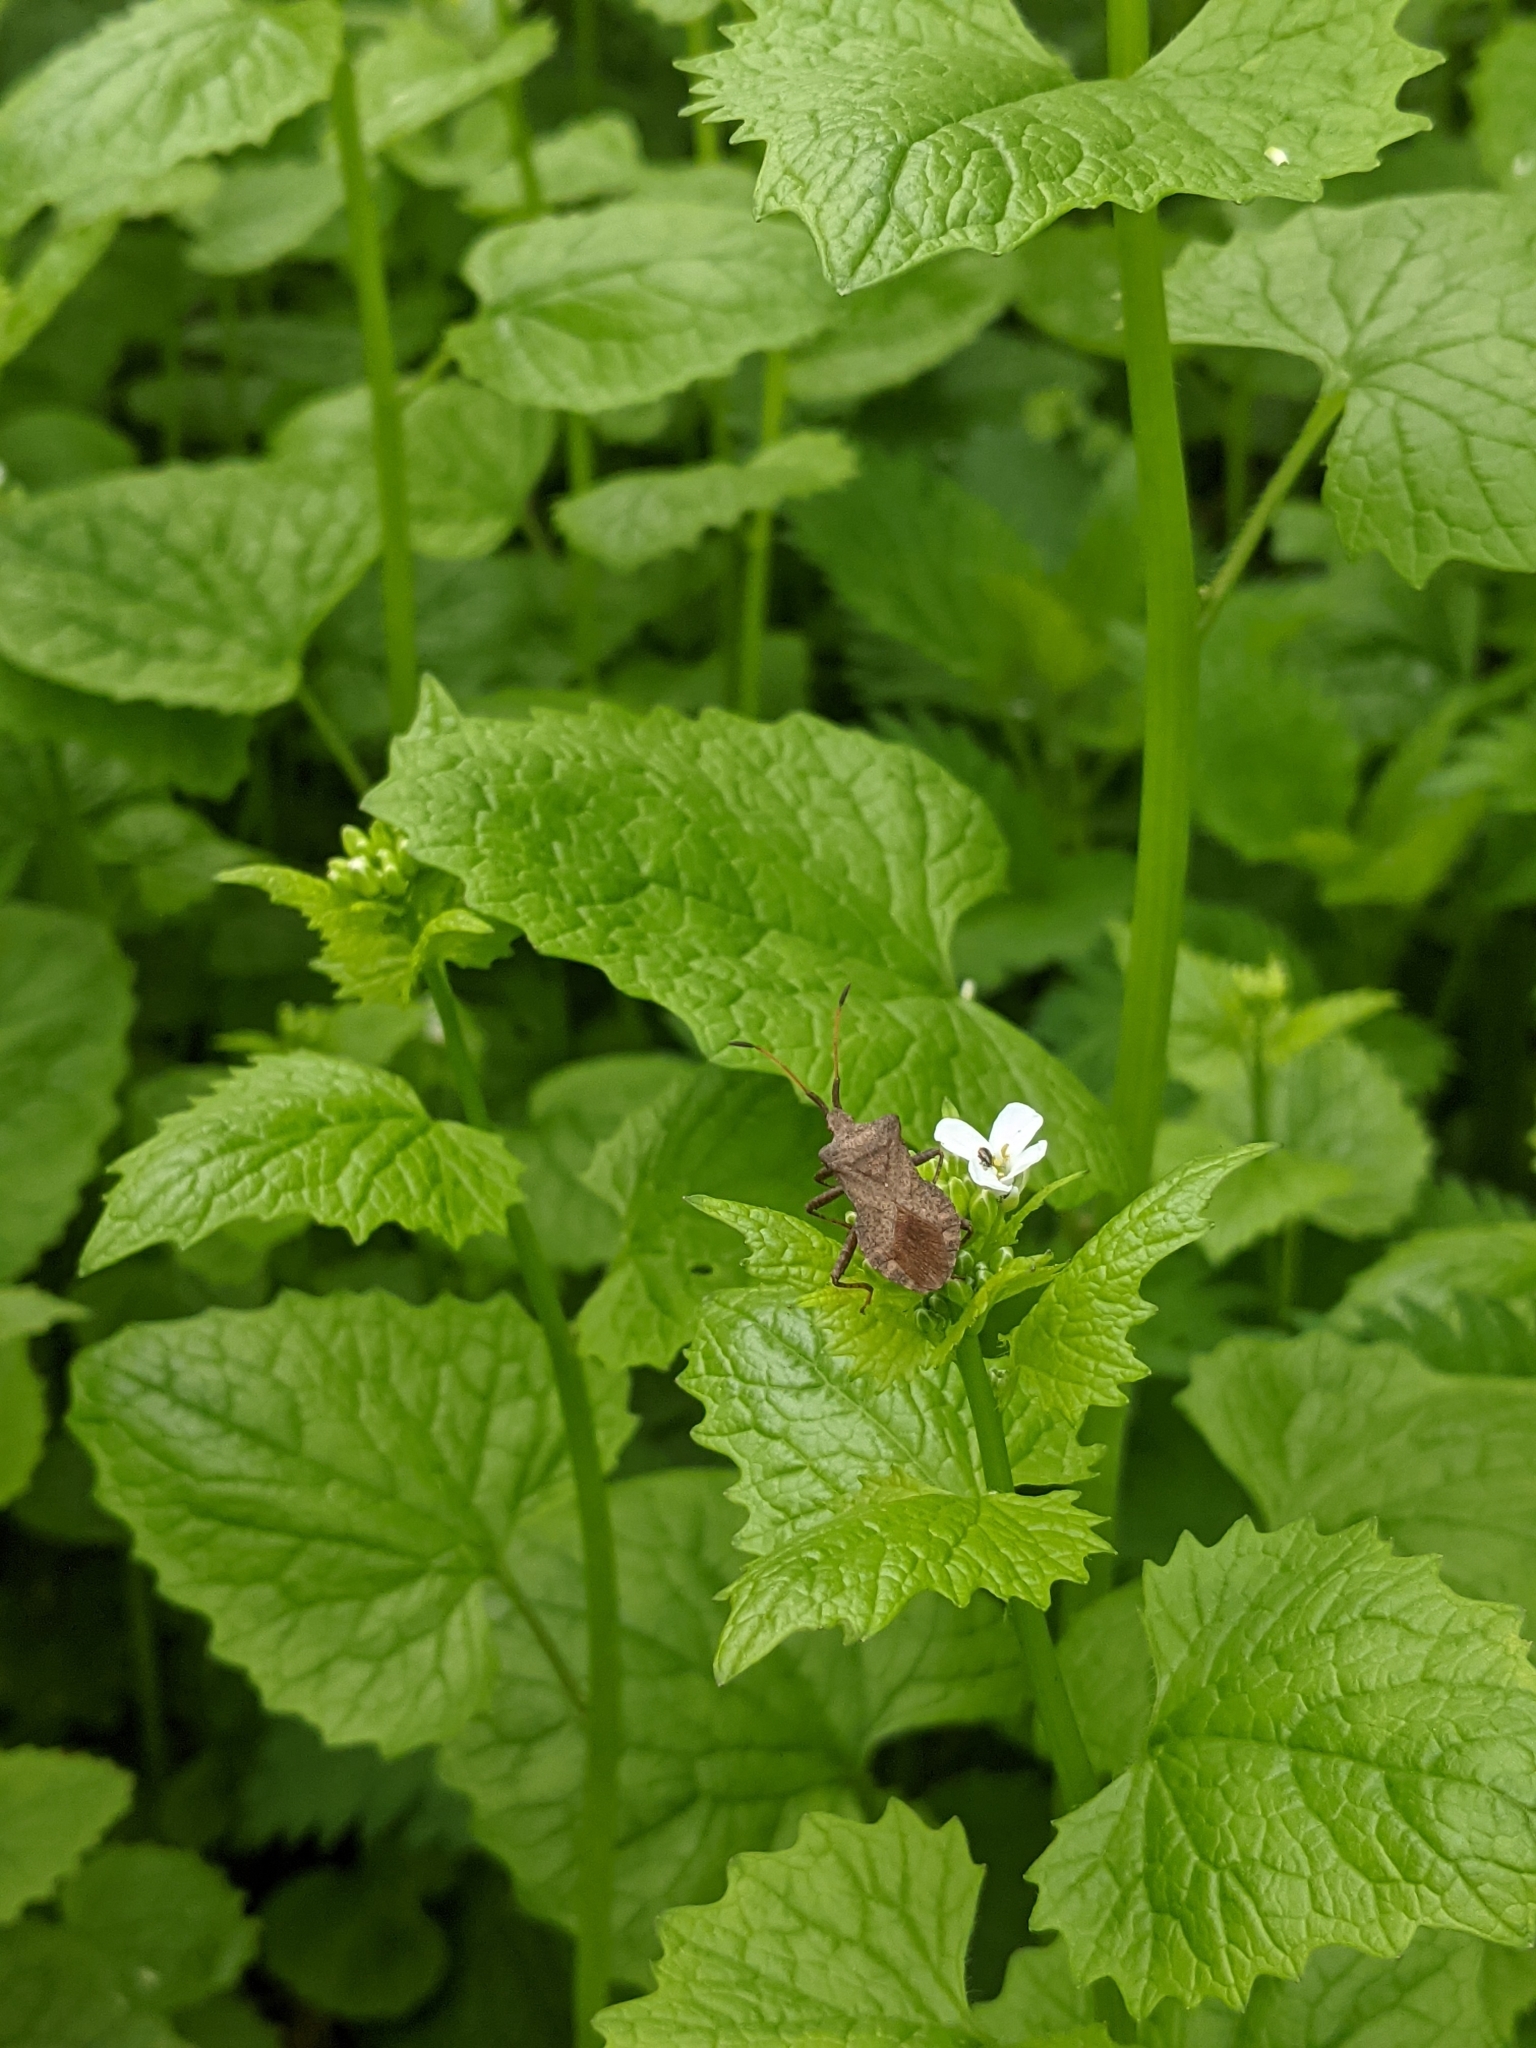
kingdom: Animalia
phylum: Arthropoda
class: Insecta
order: Hemiptera
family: Coreidae
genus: Coreus
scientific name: Coreus marginatus
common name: Dock bug
